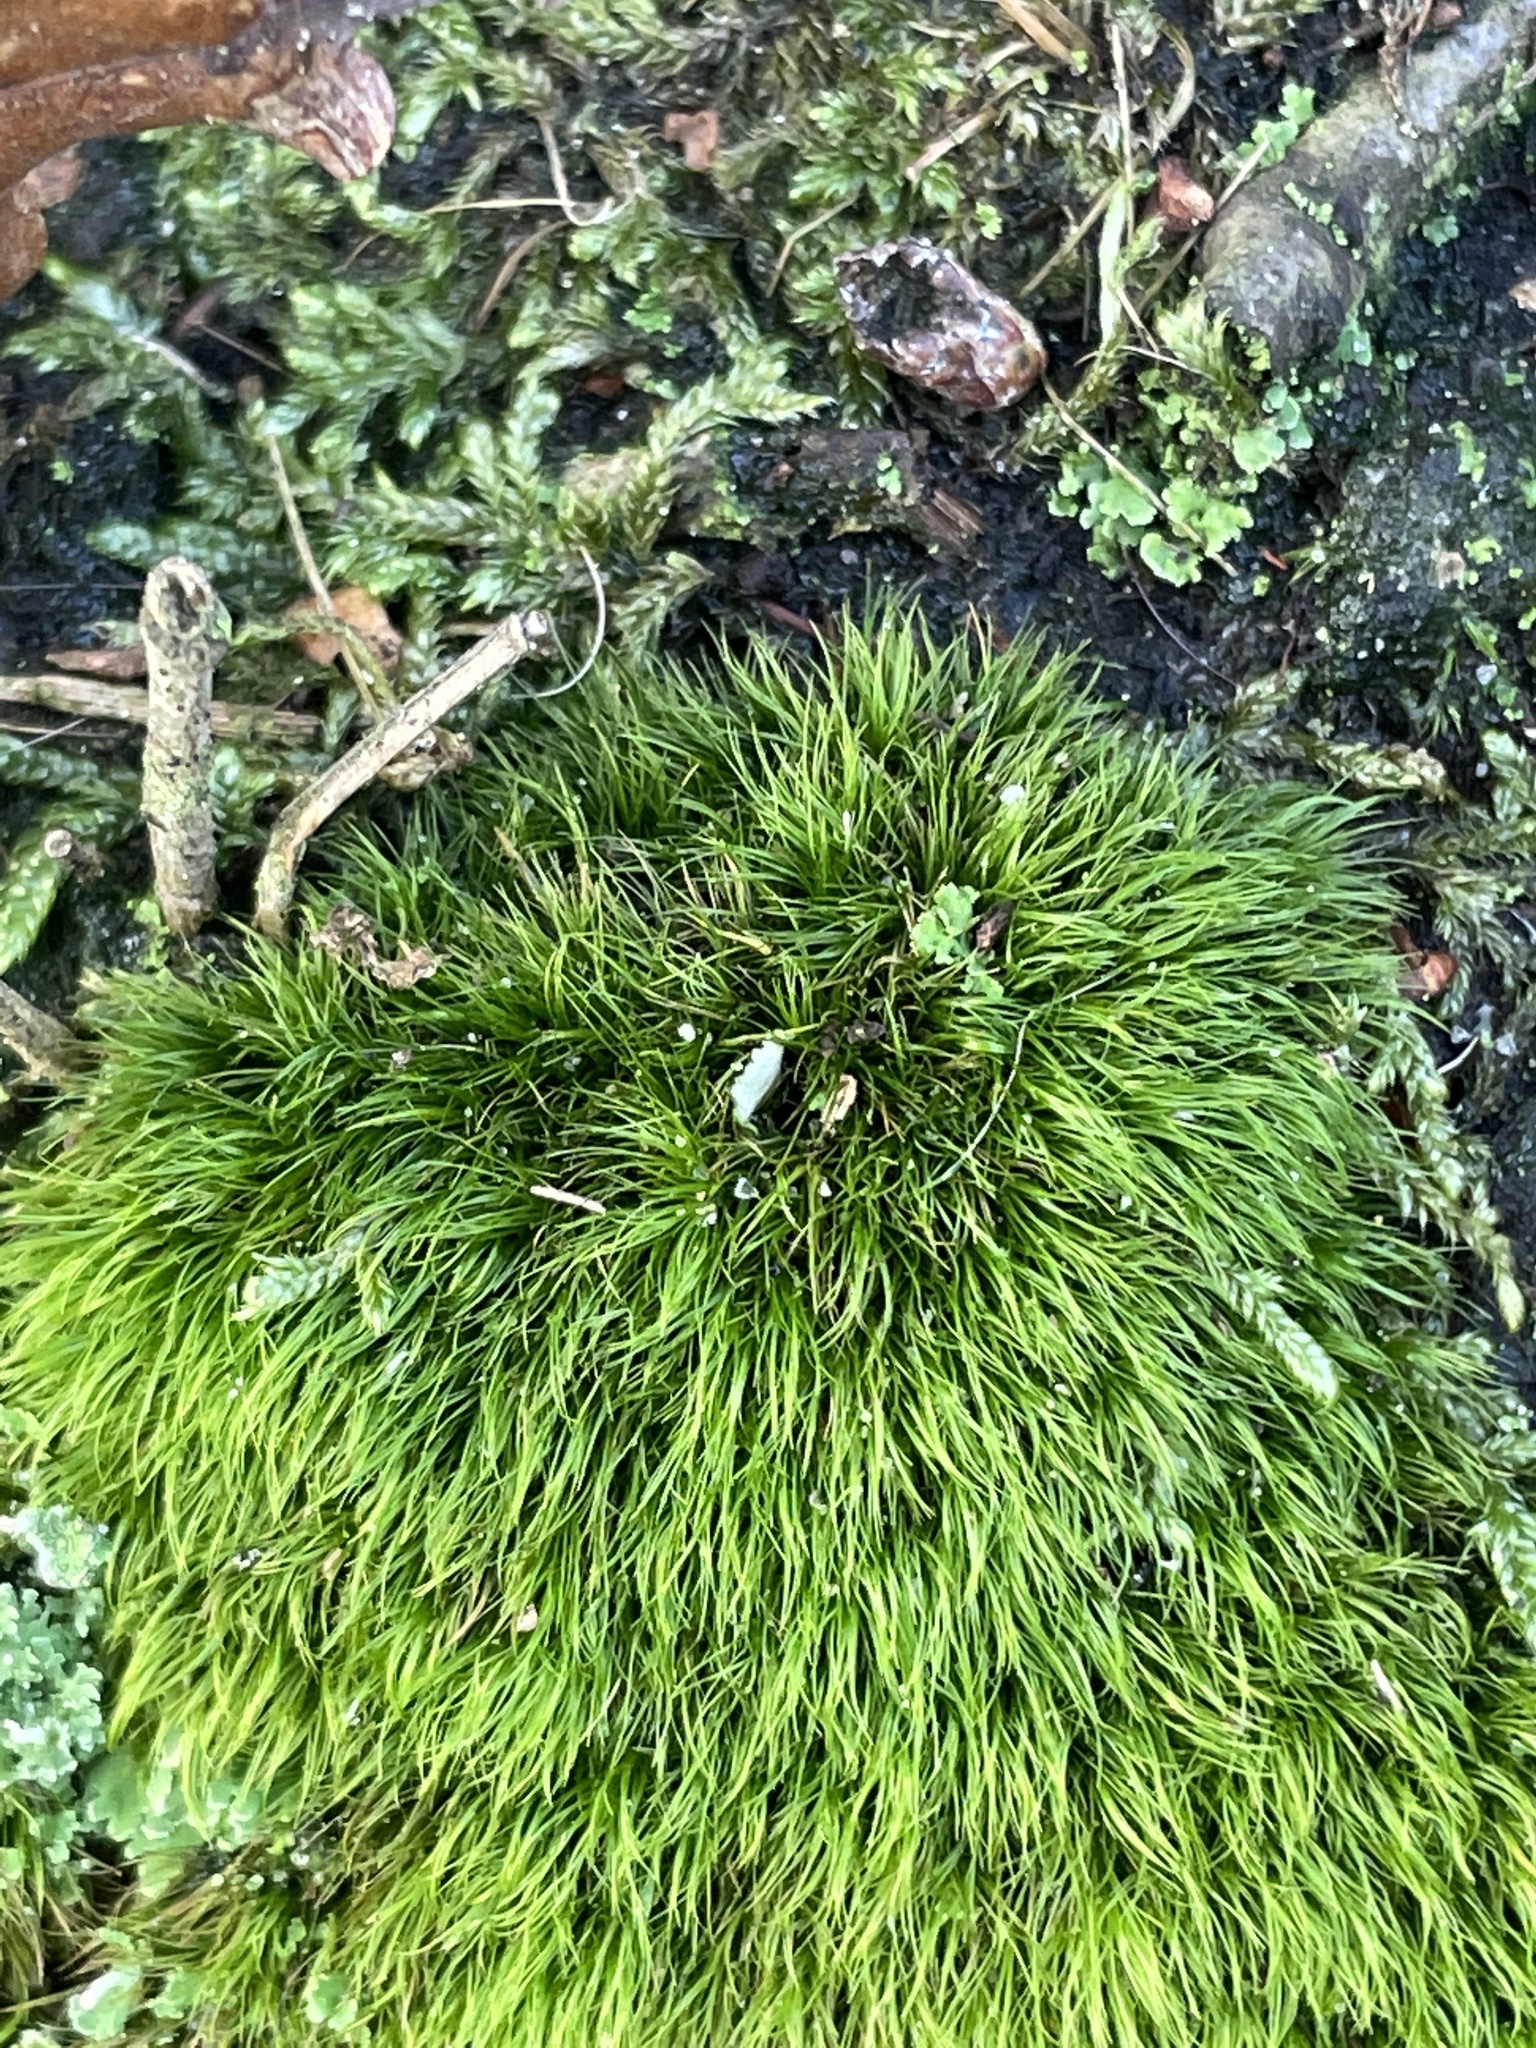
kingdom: Plantae
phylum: Bryophyta
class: Bryopsida
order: Dicranales
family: Dicranellaceae
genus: Dicranella
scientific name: Dicranella heteromalla
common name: Silky forklet moss
